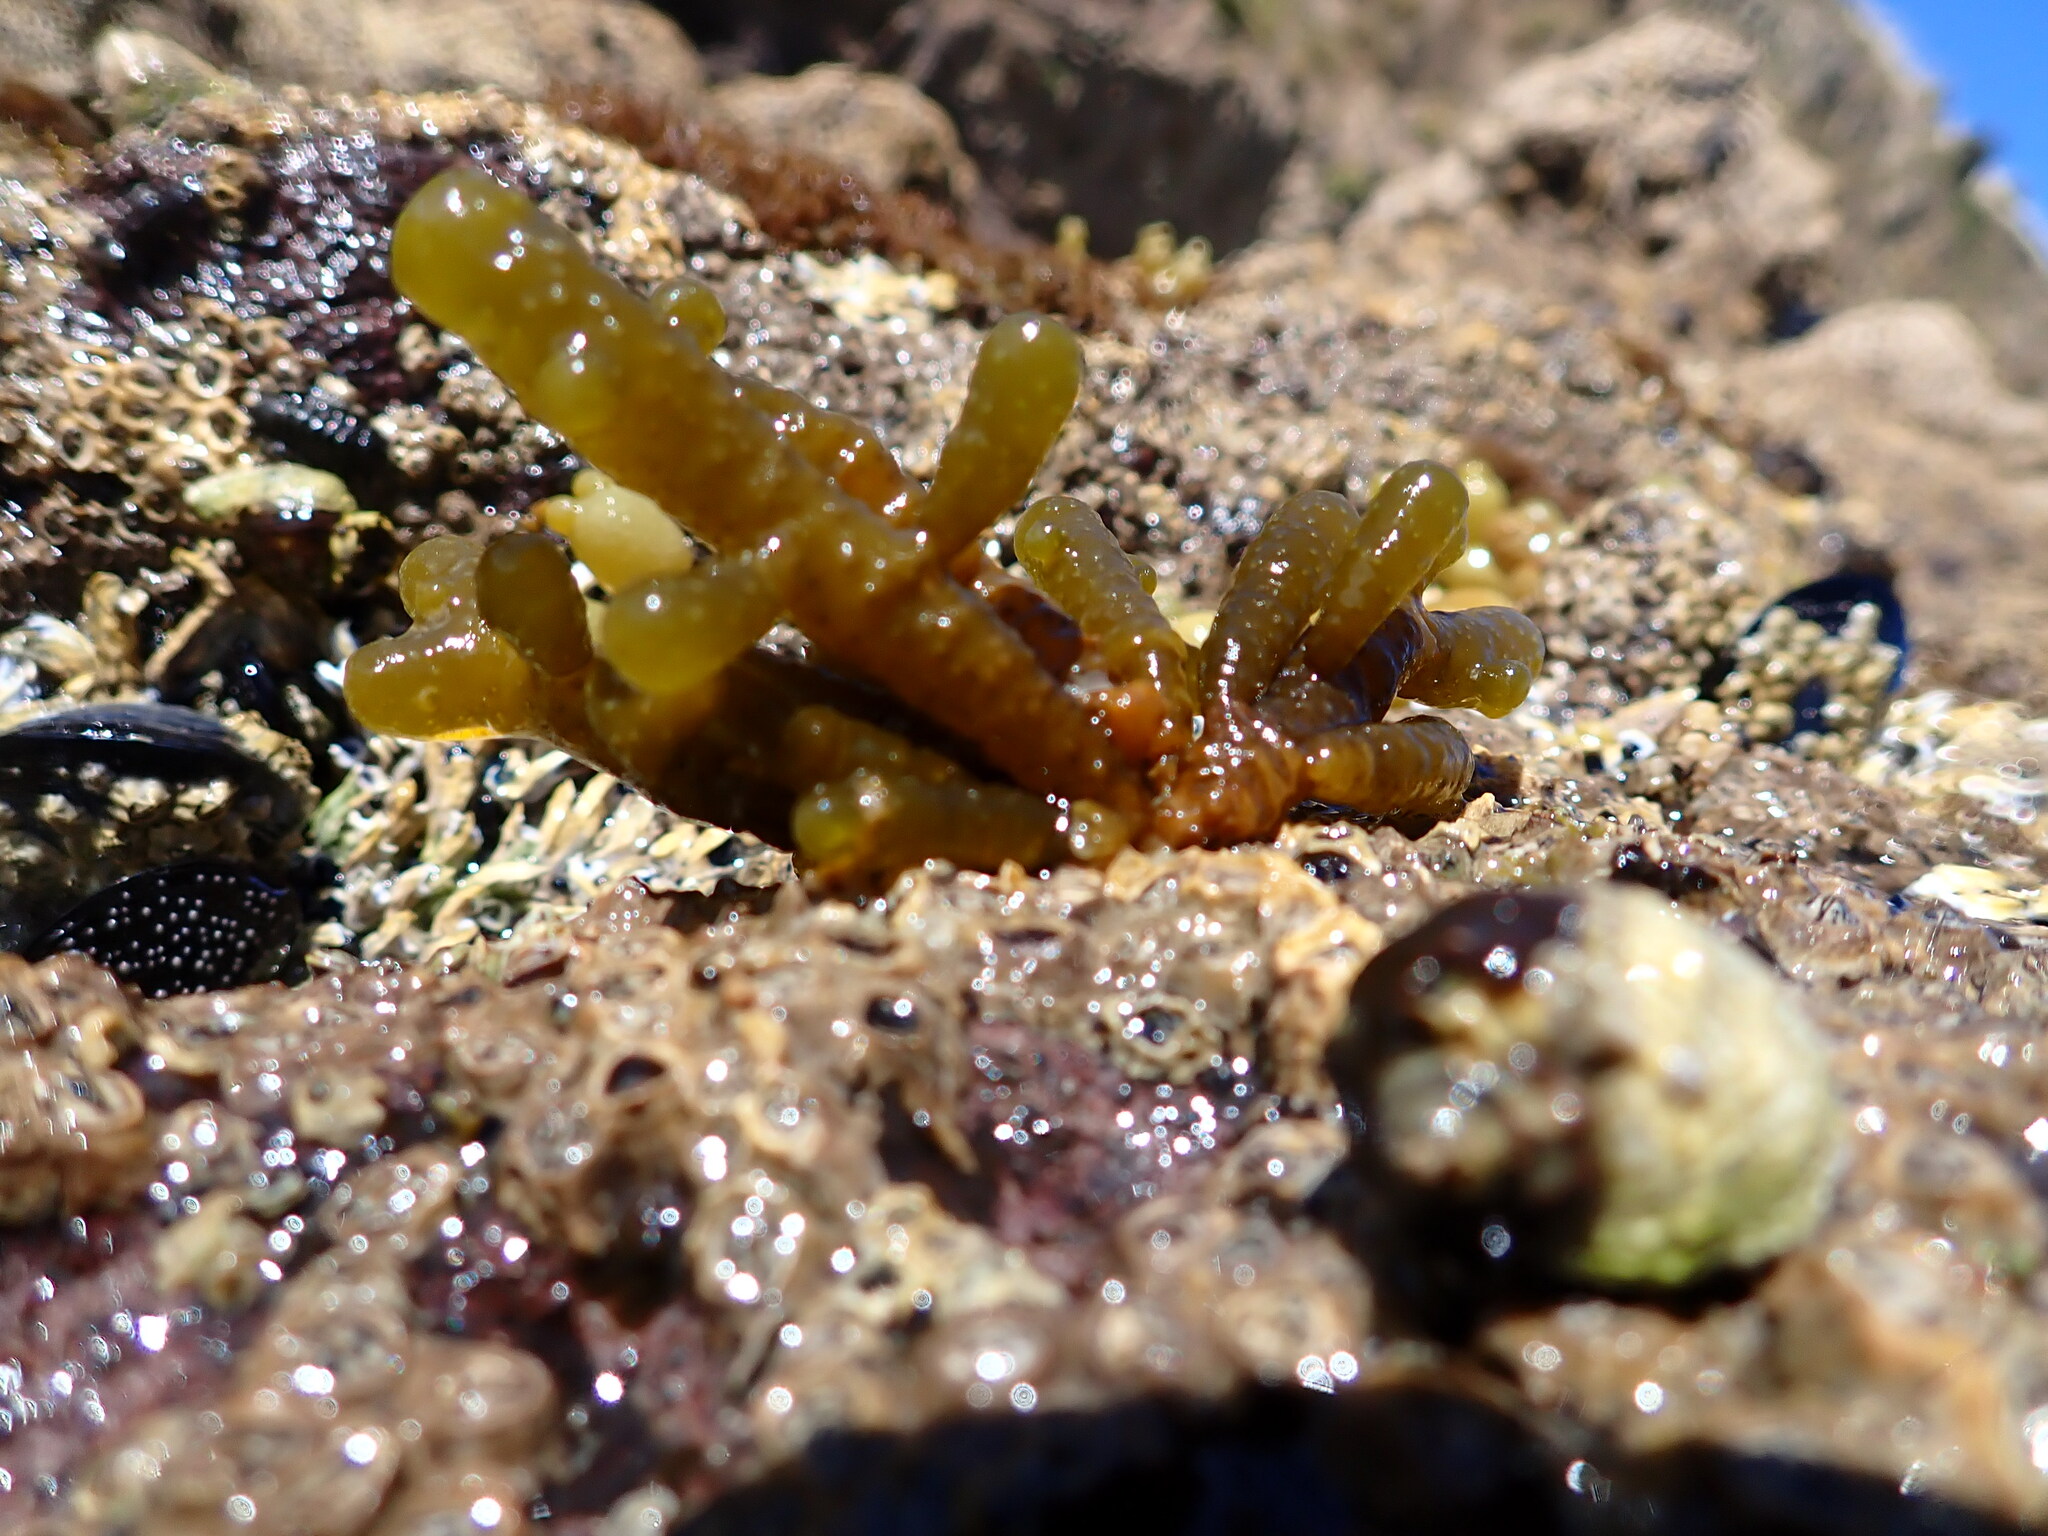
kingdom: Chromista
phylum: Ochrophyta
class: Phaeophyceae
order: Scytothamnales
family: Splachnidiaceae
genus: Splachnidium
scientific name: Splachnidium rugosum
